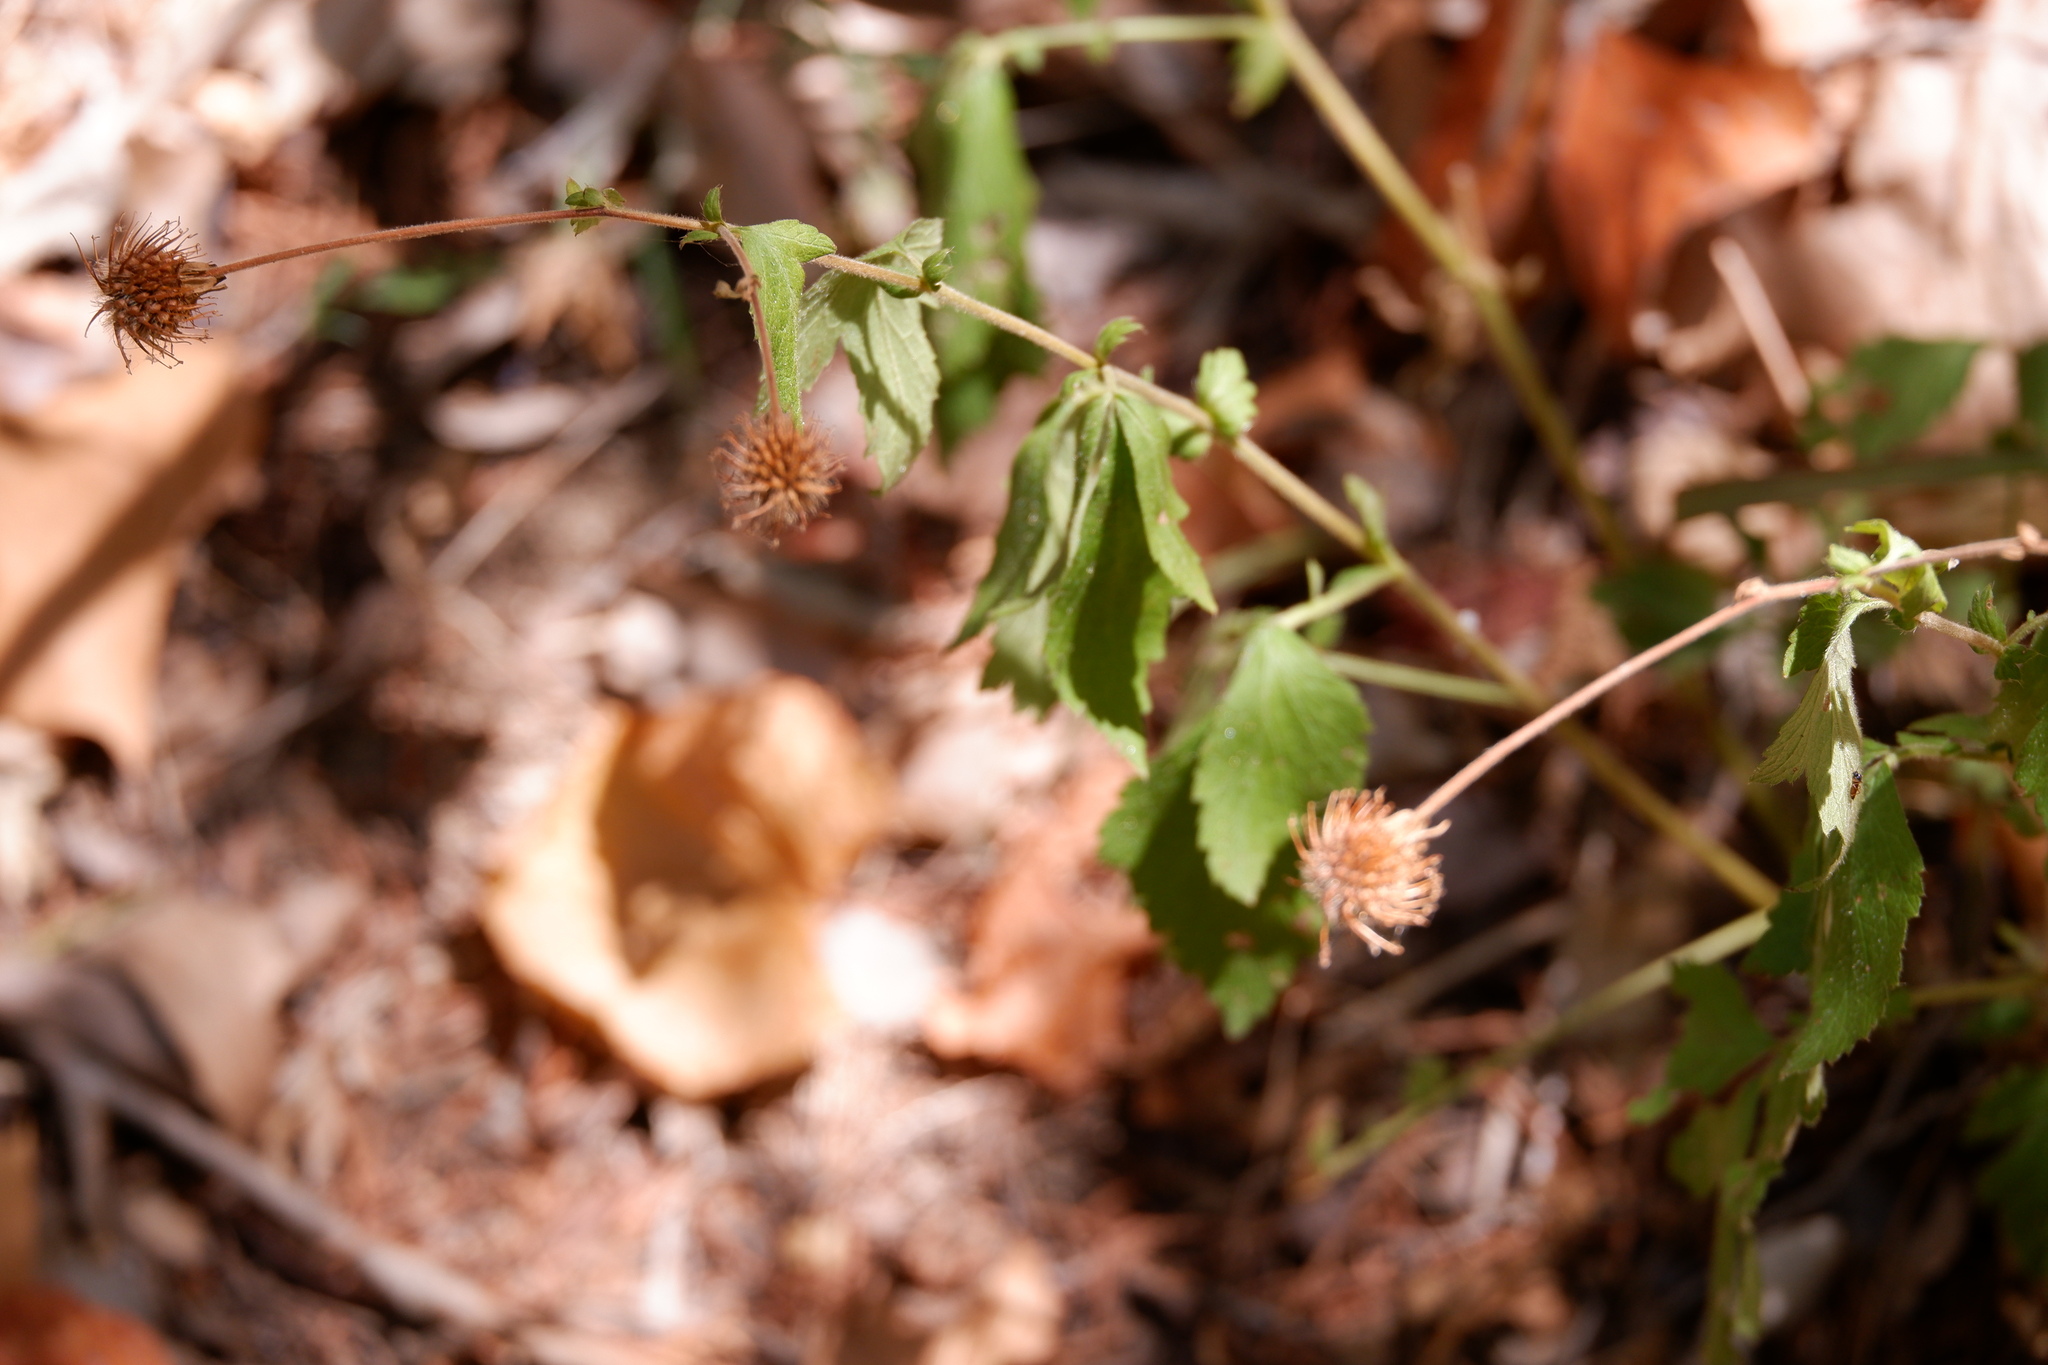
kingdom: Plantae
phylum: Tracheophyta
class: Magnoliopsida
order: Rosales
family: Rosaceae
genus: Geum
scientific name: Geum canadense
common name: White avens
